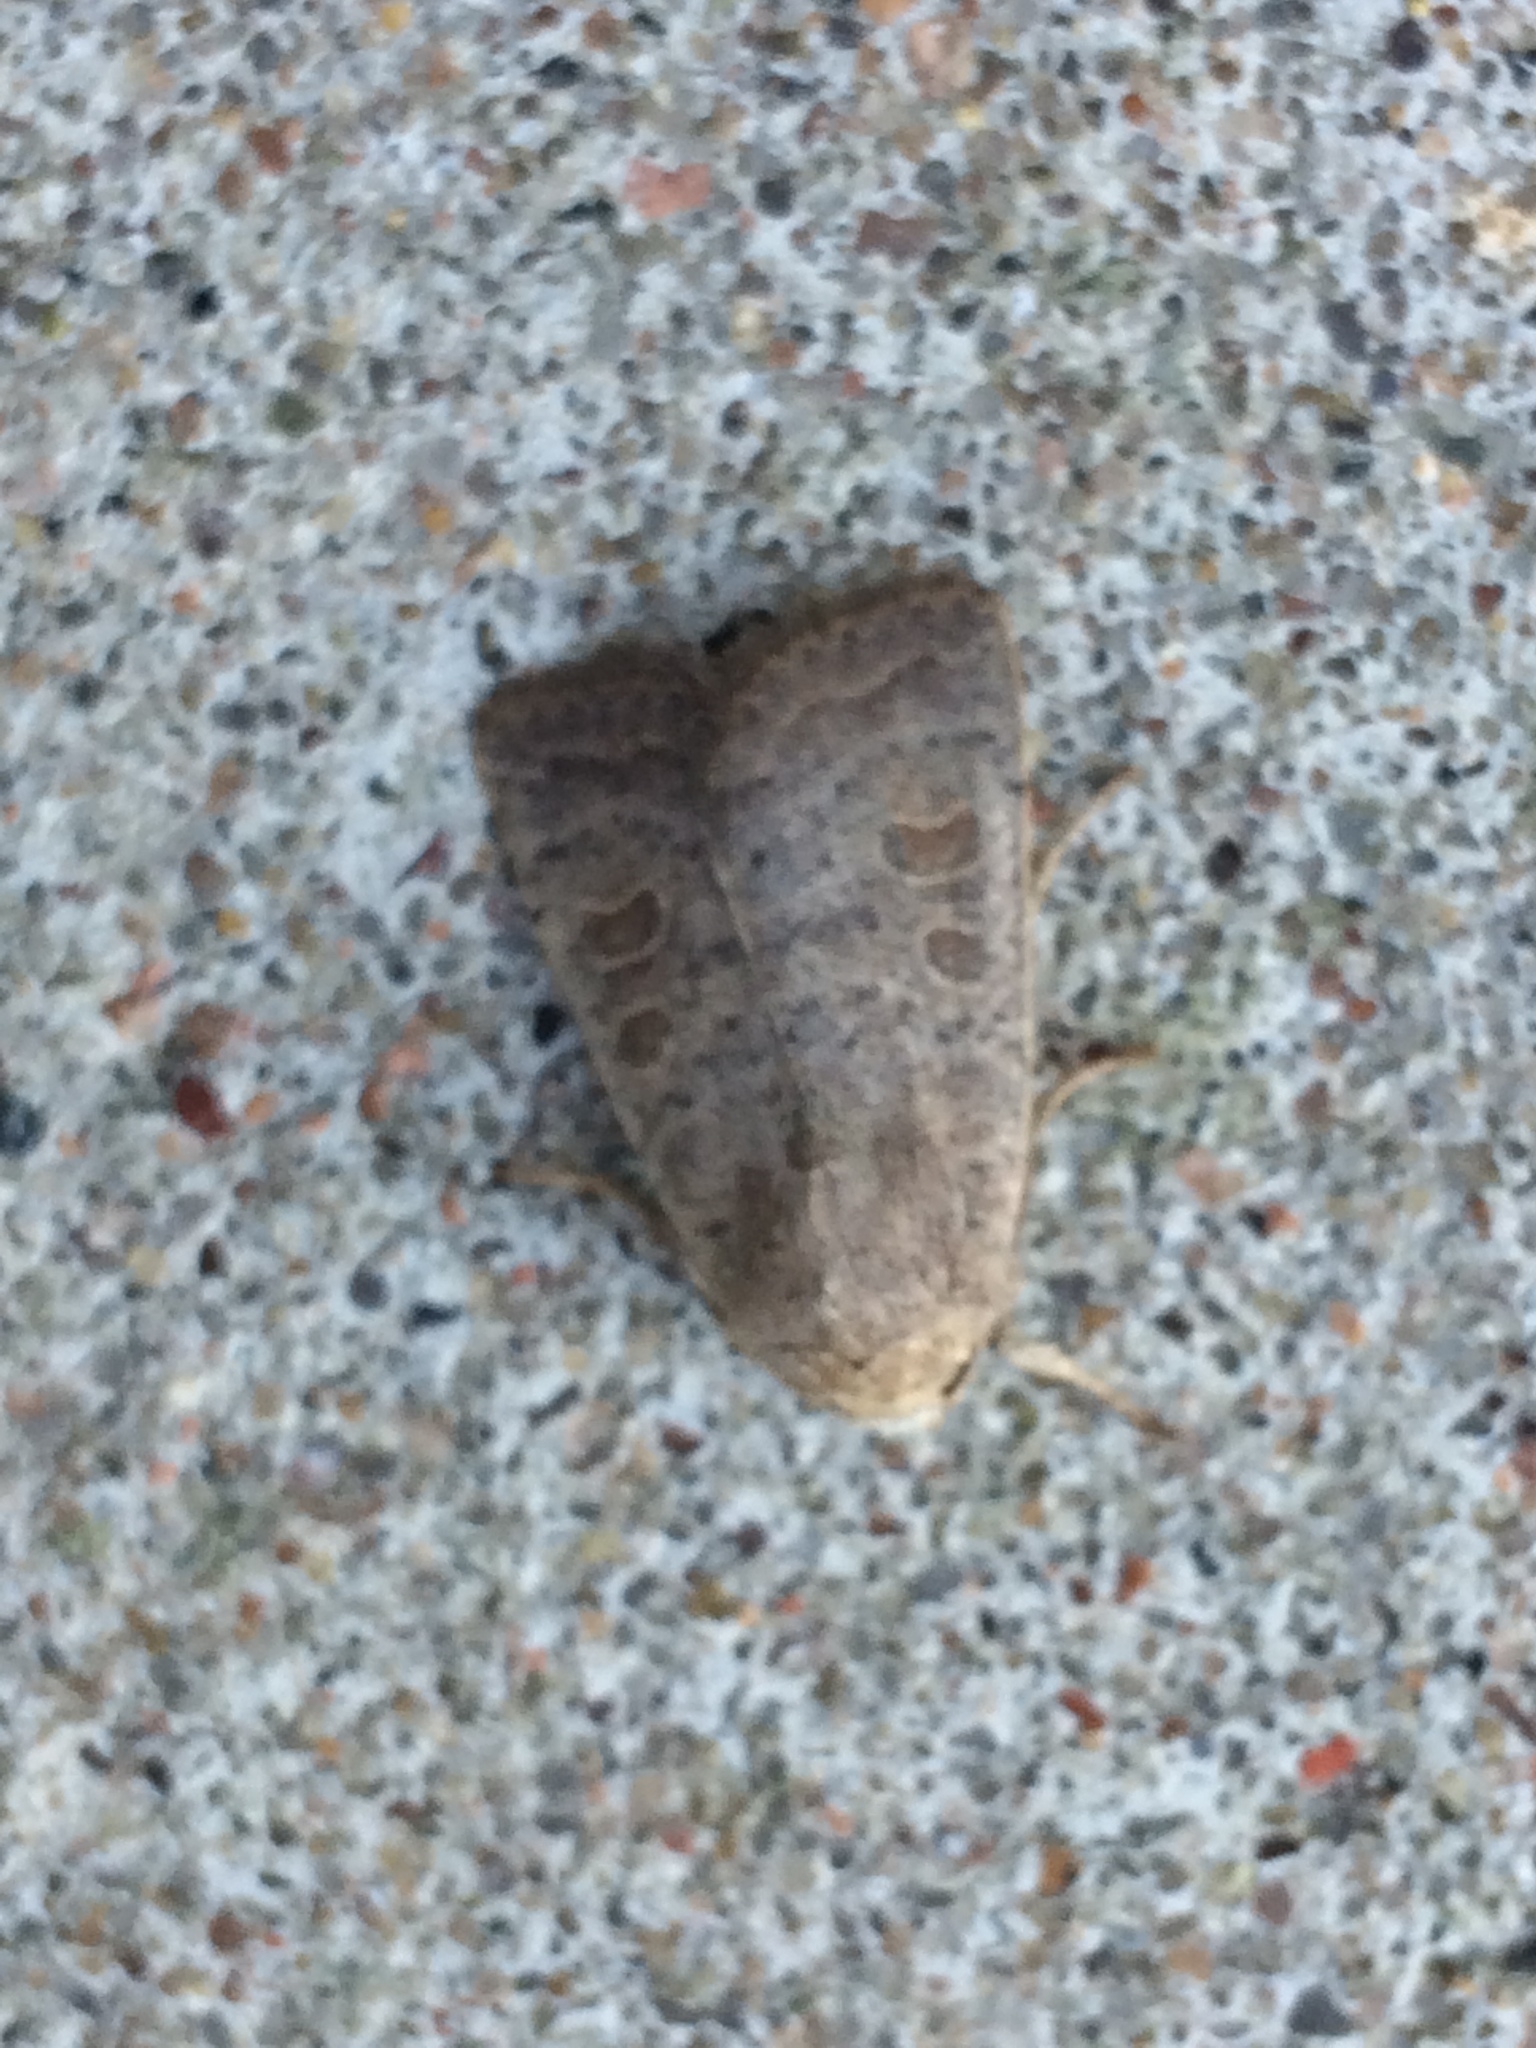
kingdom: Animalia
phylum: Arthropoda
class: Insecta
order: Lepidoptera
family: Noctuidae
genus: Hoplodrina
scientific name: Hoplodrina ambigua
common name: Vine's rustic
